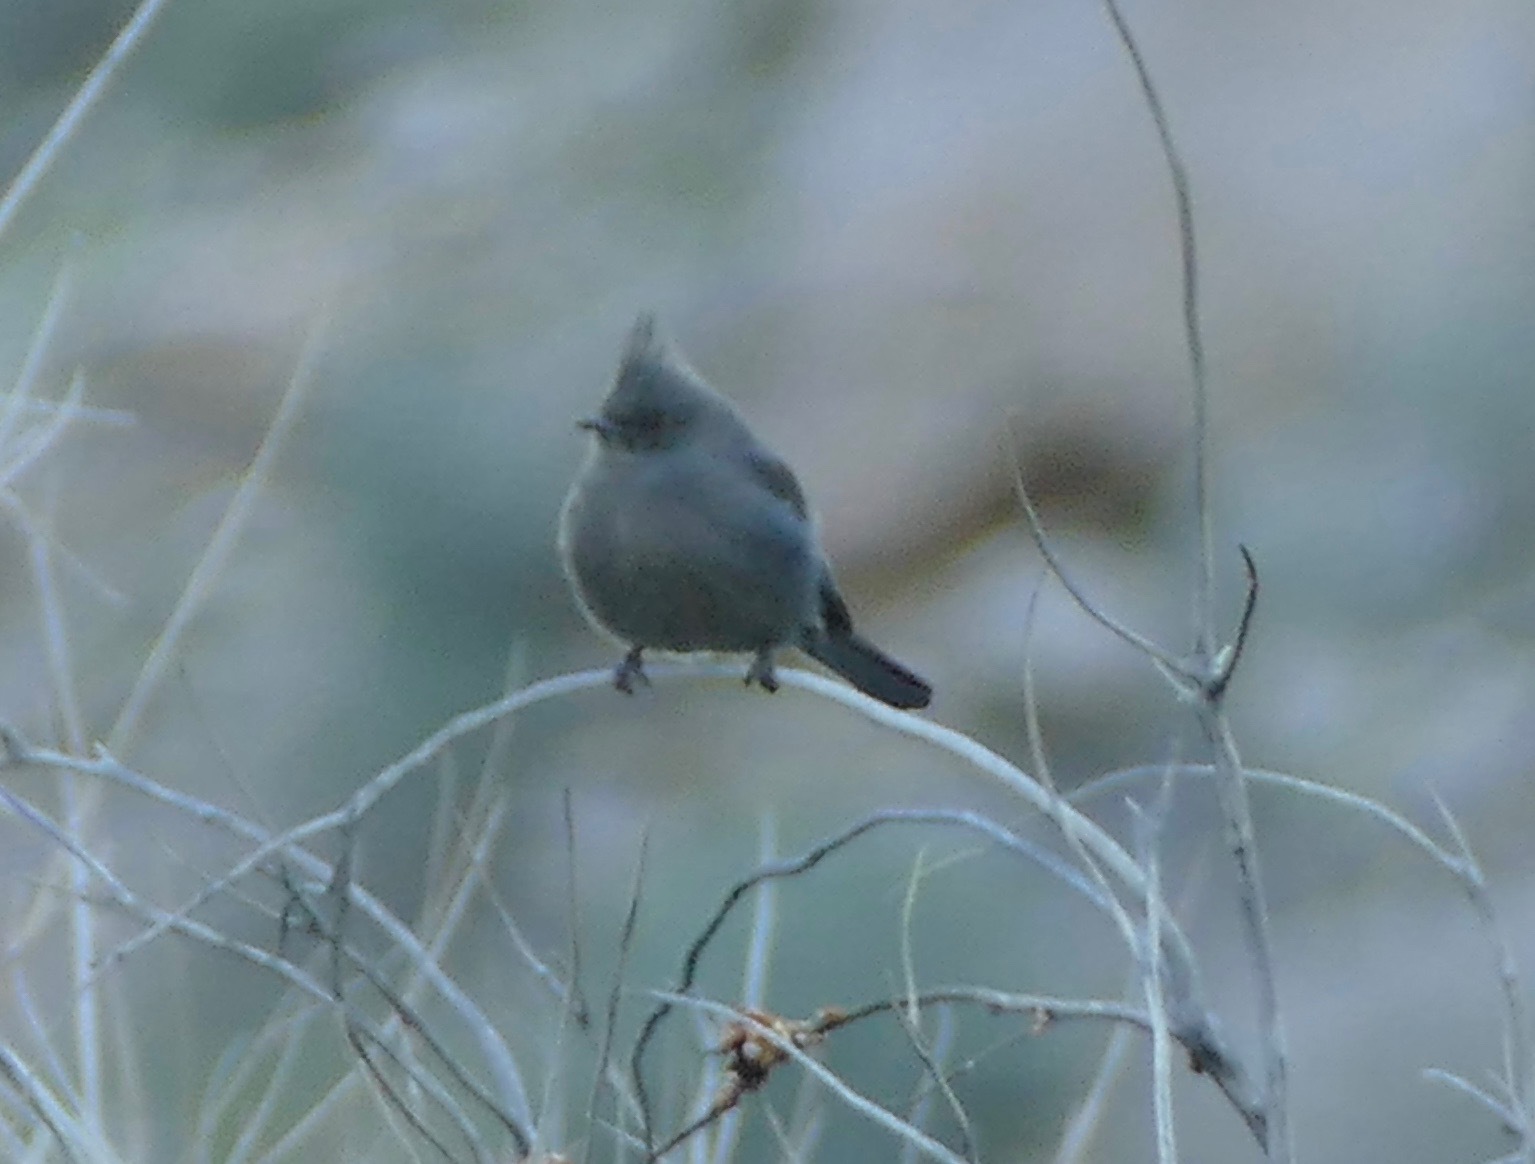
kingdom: Animalia
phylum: Chordata
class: Aves
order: Passeriformes
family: Ptilogonatidae
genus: Phainopepla
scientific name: Phainopepla nitens
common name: Phainopepla
